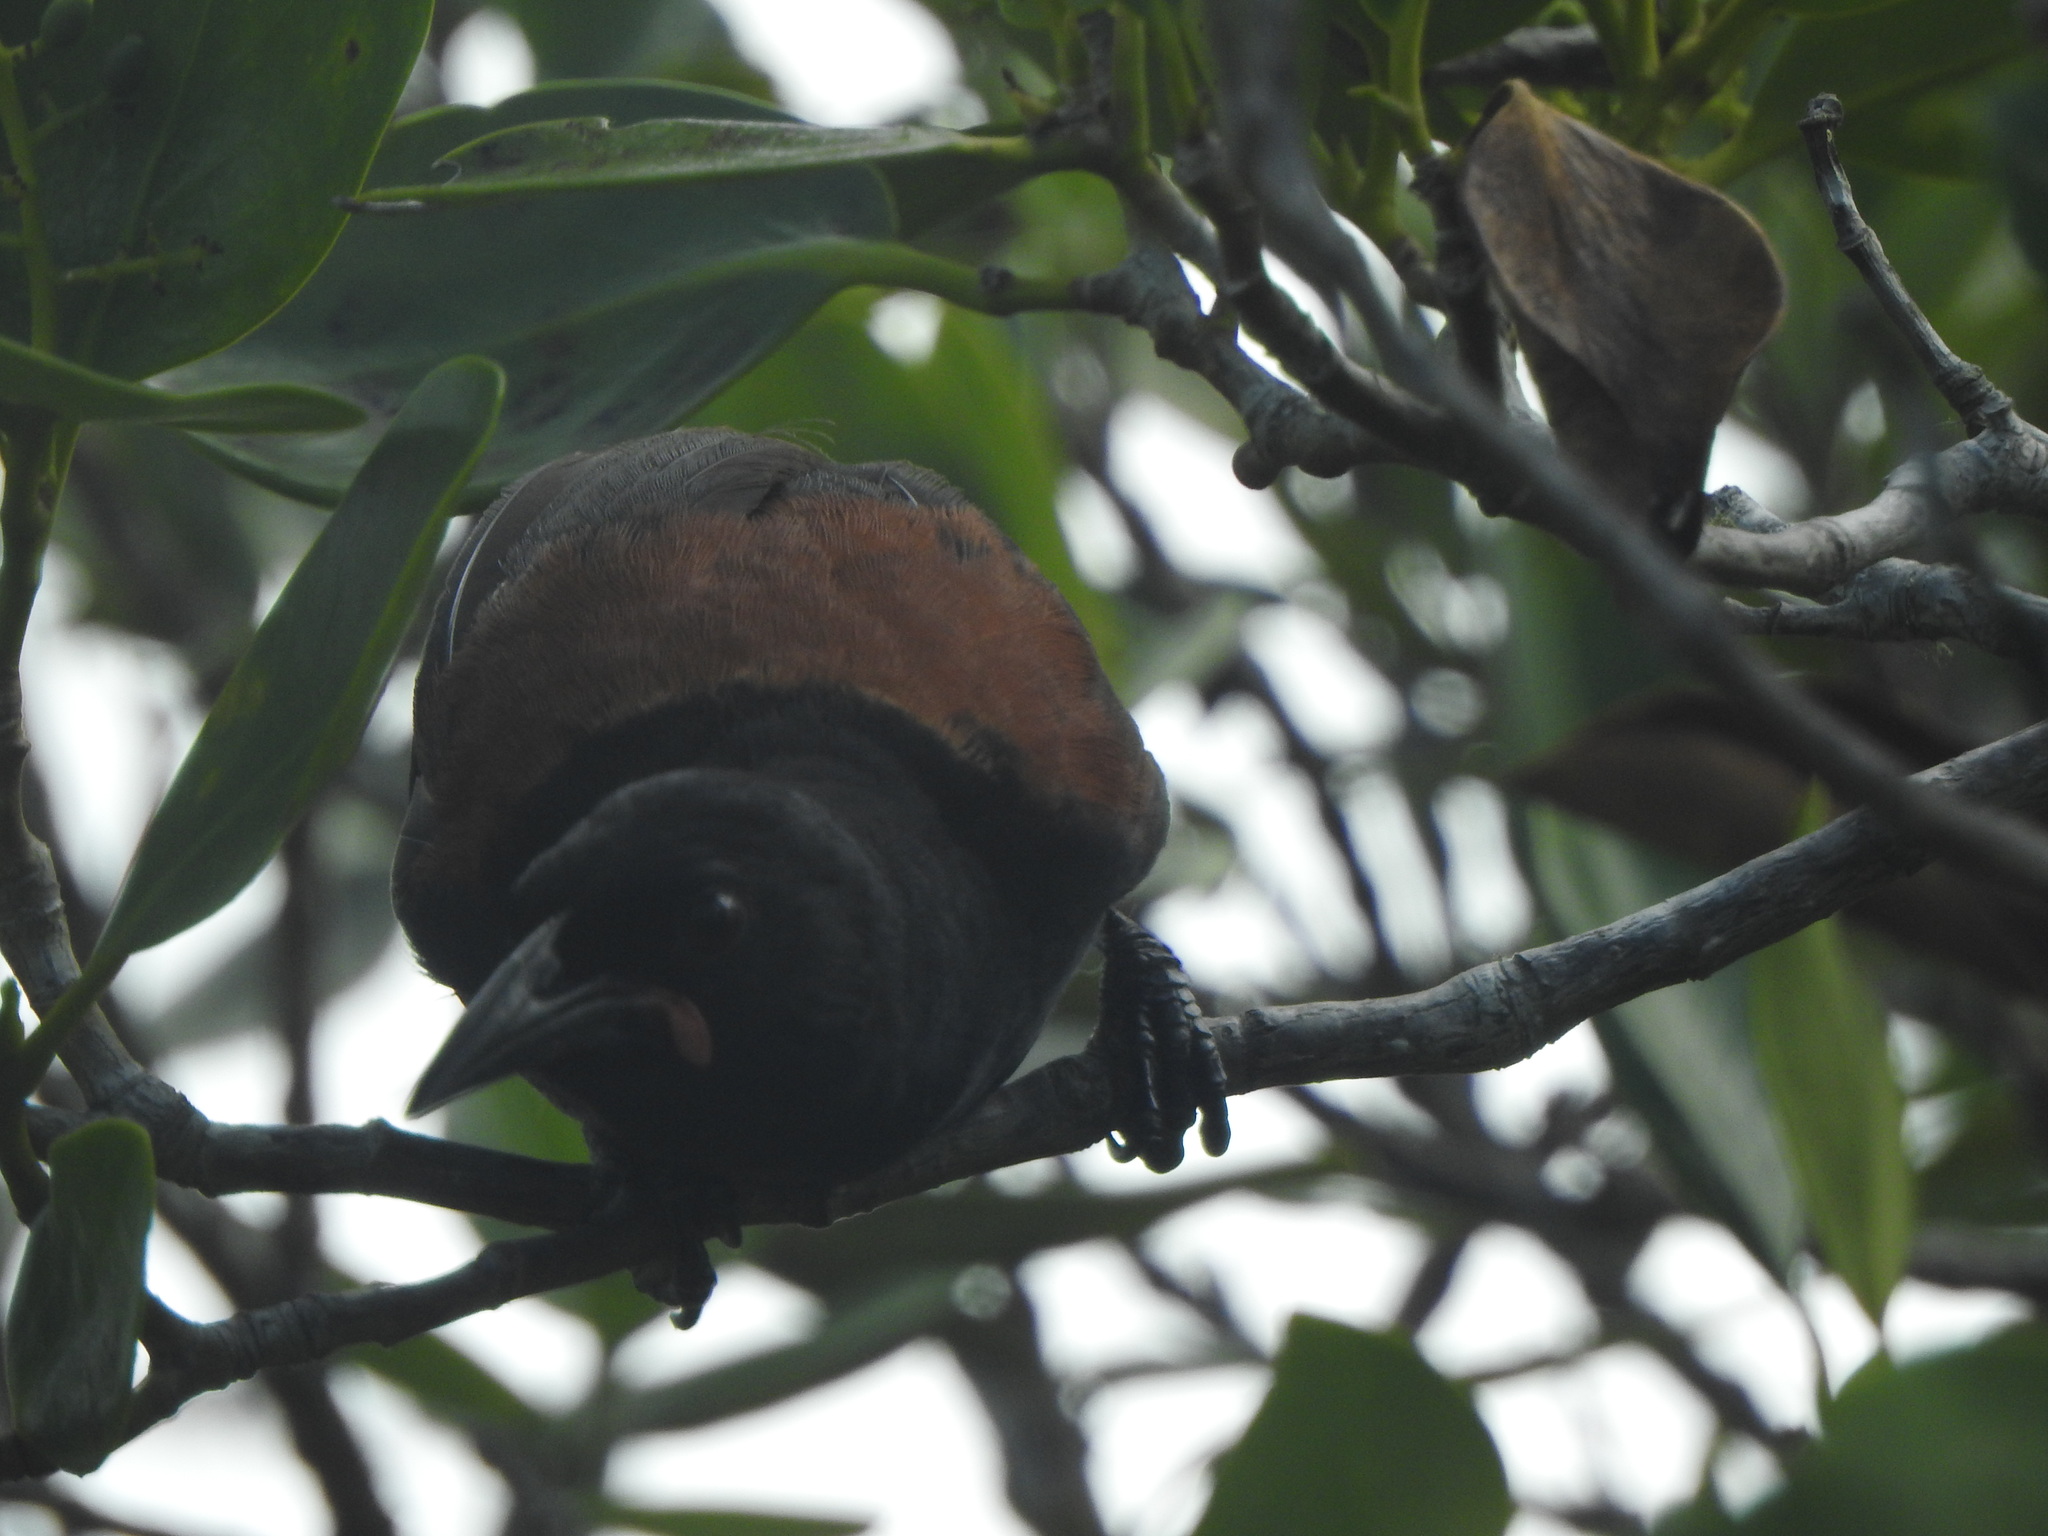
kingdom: Animalia
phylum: Chordata
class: Aves
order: Passeriformes
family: Callaeatidae
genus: Philesturnus
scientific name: Philesturnus carunculatus
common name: South island saddleback
